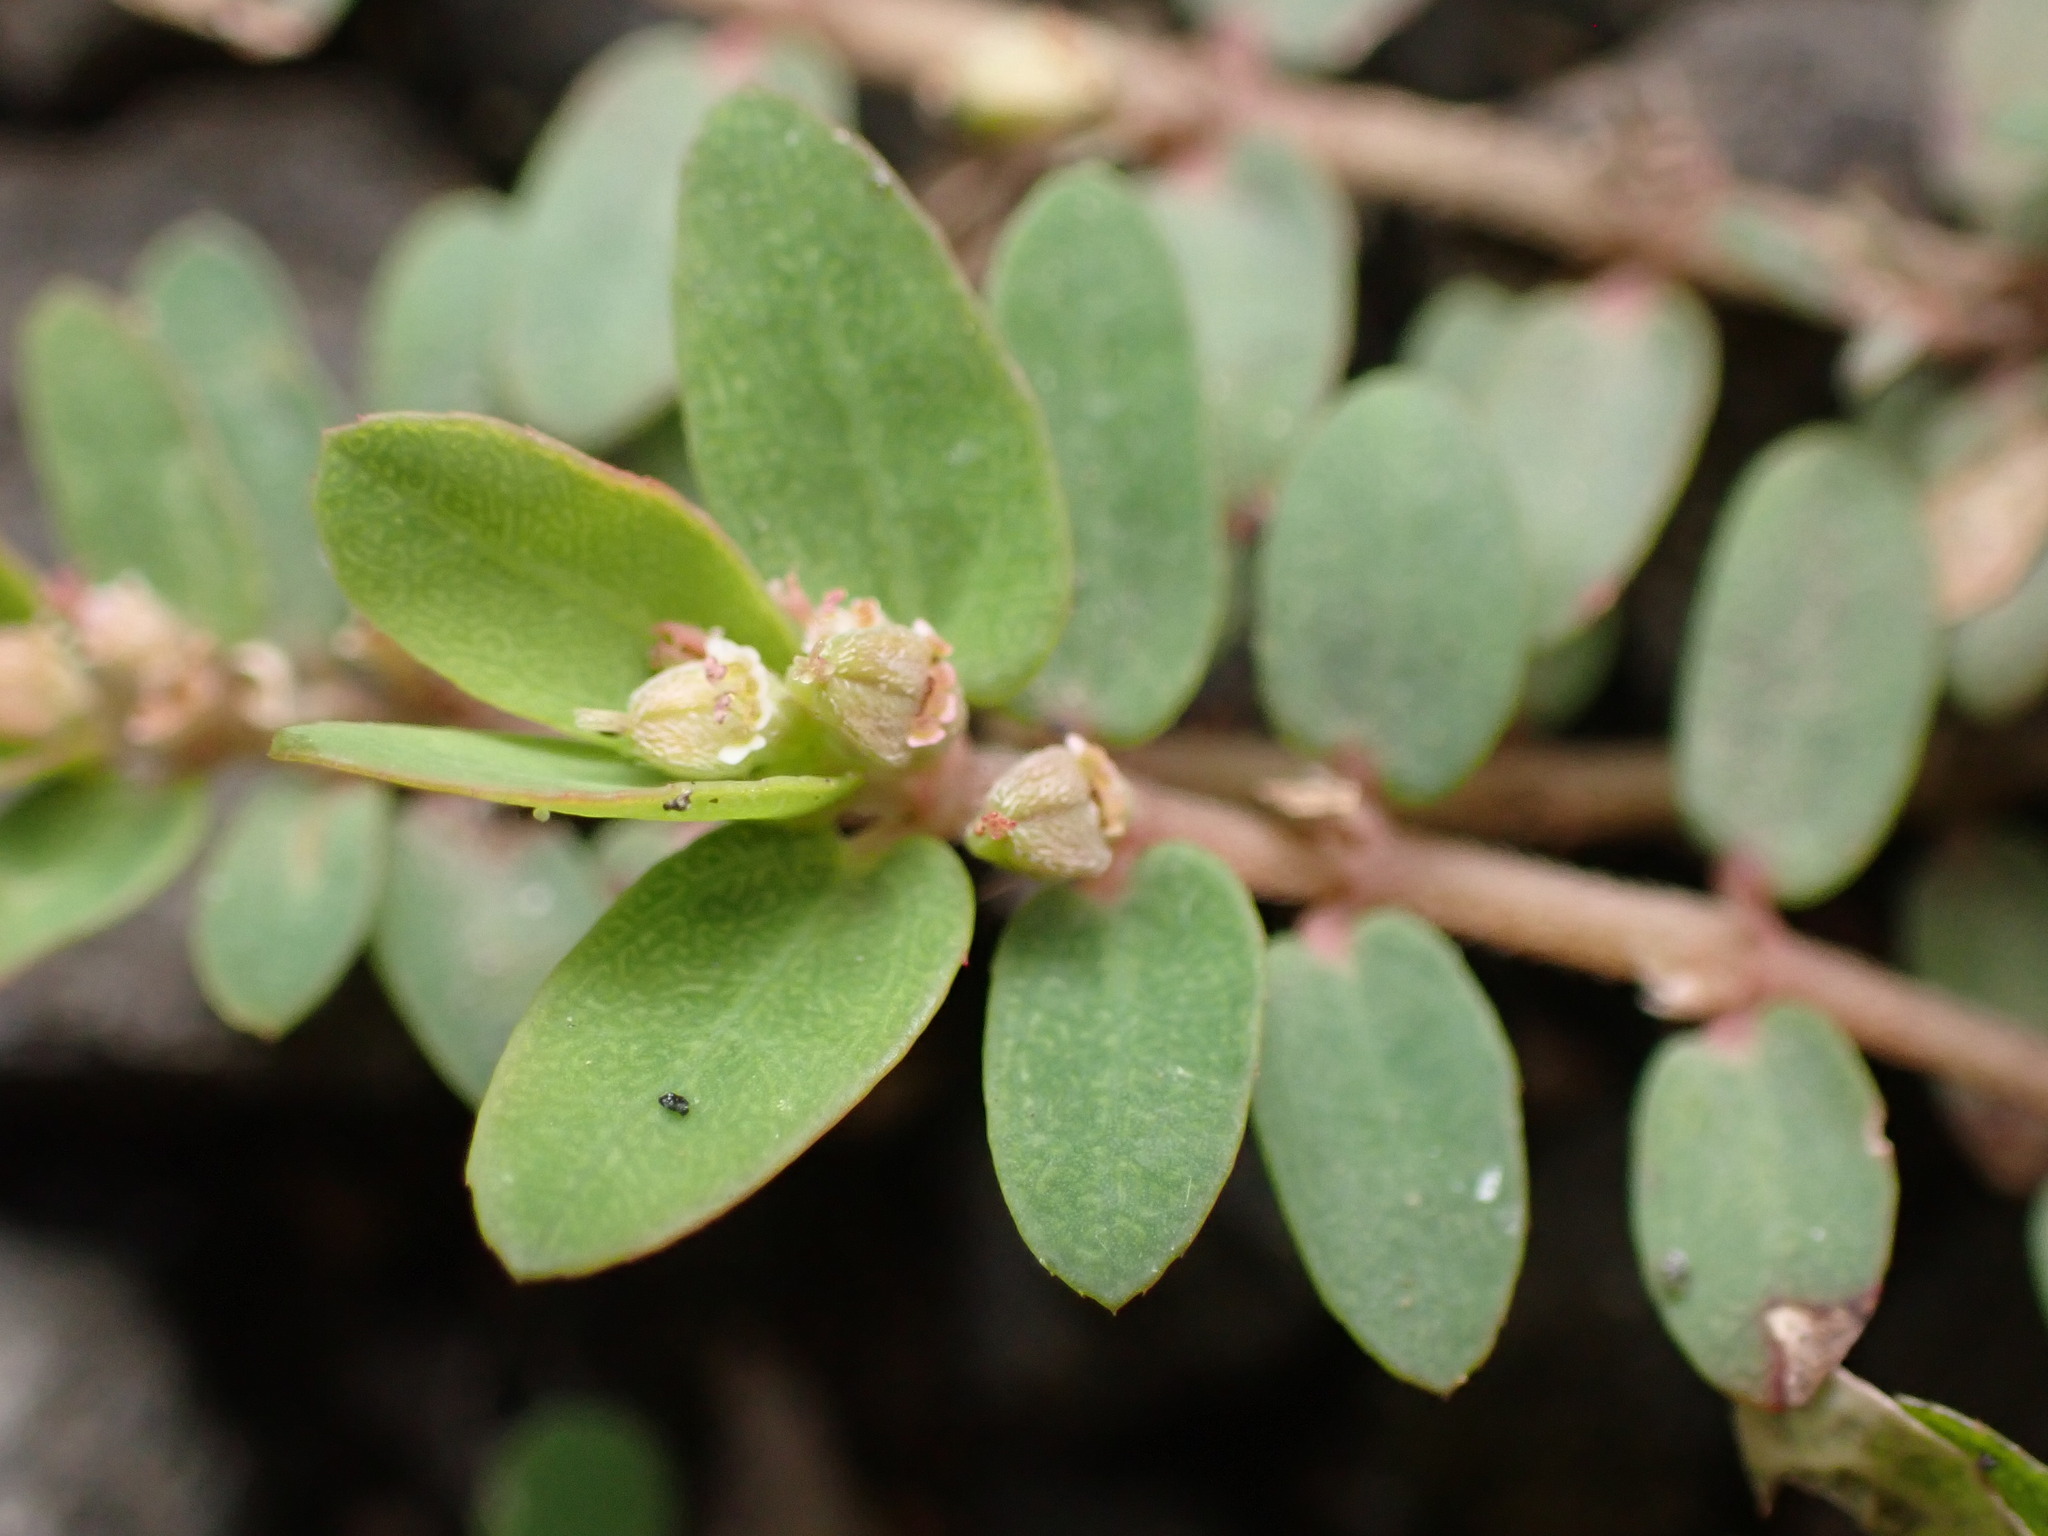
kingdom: Plantae
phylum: Tracheophyta
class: Magnoliopsida
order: Malpighiales
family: Euphorbiaceae
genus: Euphorbia
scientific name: Euphorbia thymifolia
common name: Gulf sandmat
